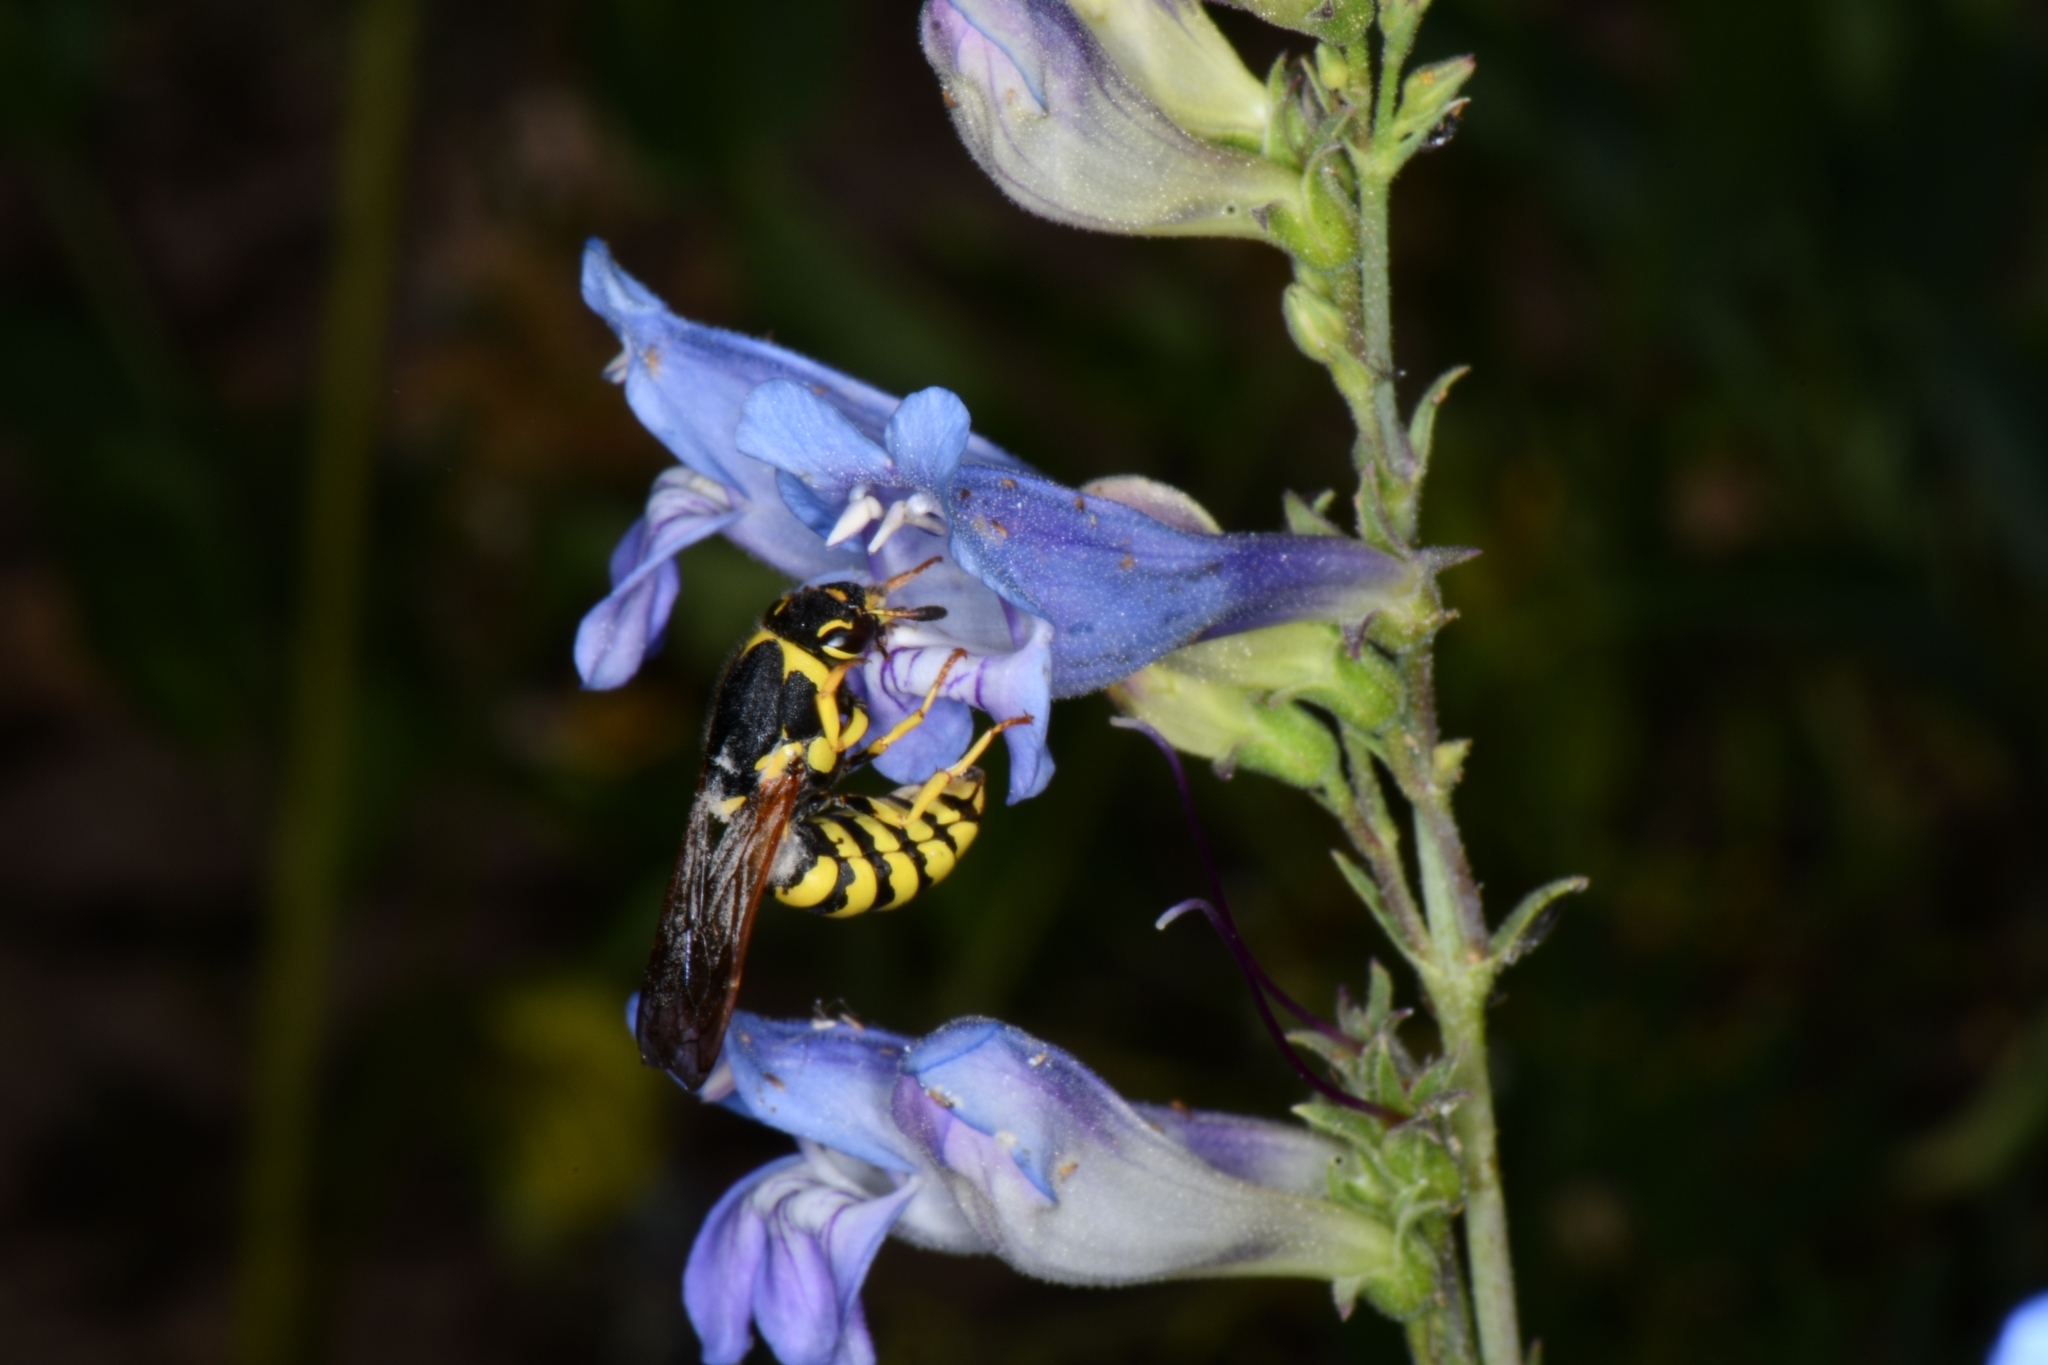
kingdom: Animalia
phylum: Arthropoda
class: Insecta
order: Hymenoptera
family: Masaridae
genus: Pseudomasaris
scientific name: Pseudomasaris vespoides
